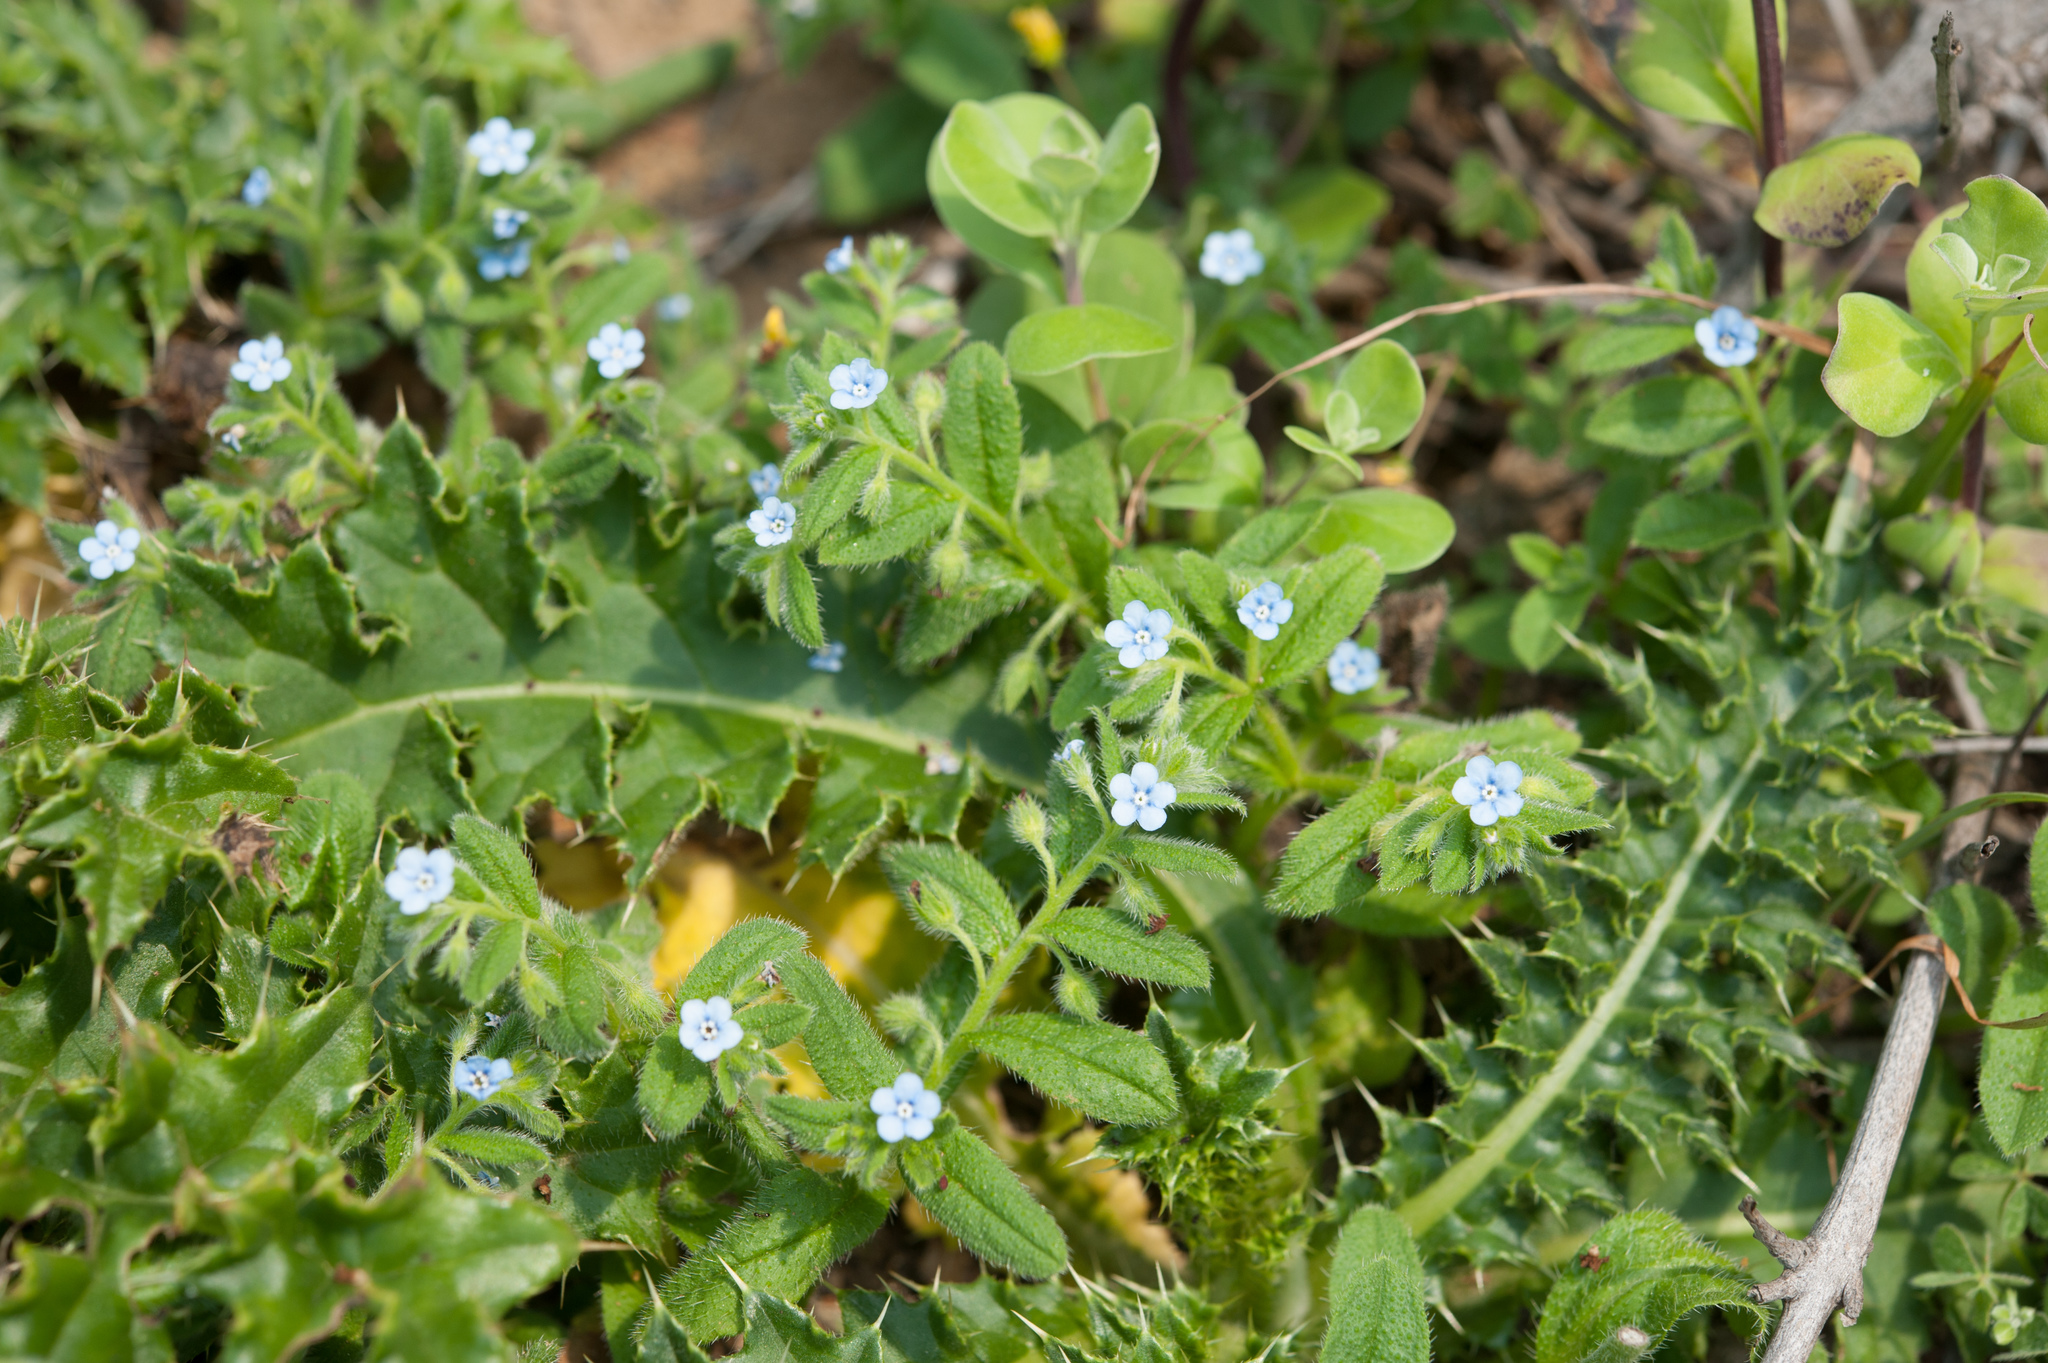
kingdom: Plantae
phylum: Tracheophyta
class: Magnoliopsida
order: Boraginales
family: Boraginaceae
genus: Thyrocarpus
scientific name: Thyrocarpus sampsonii
